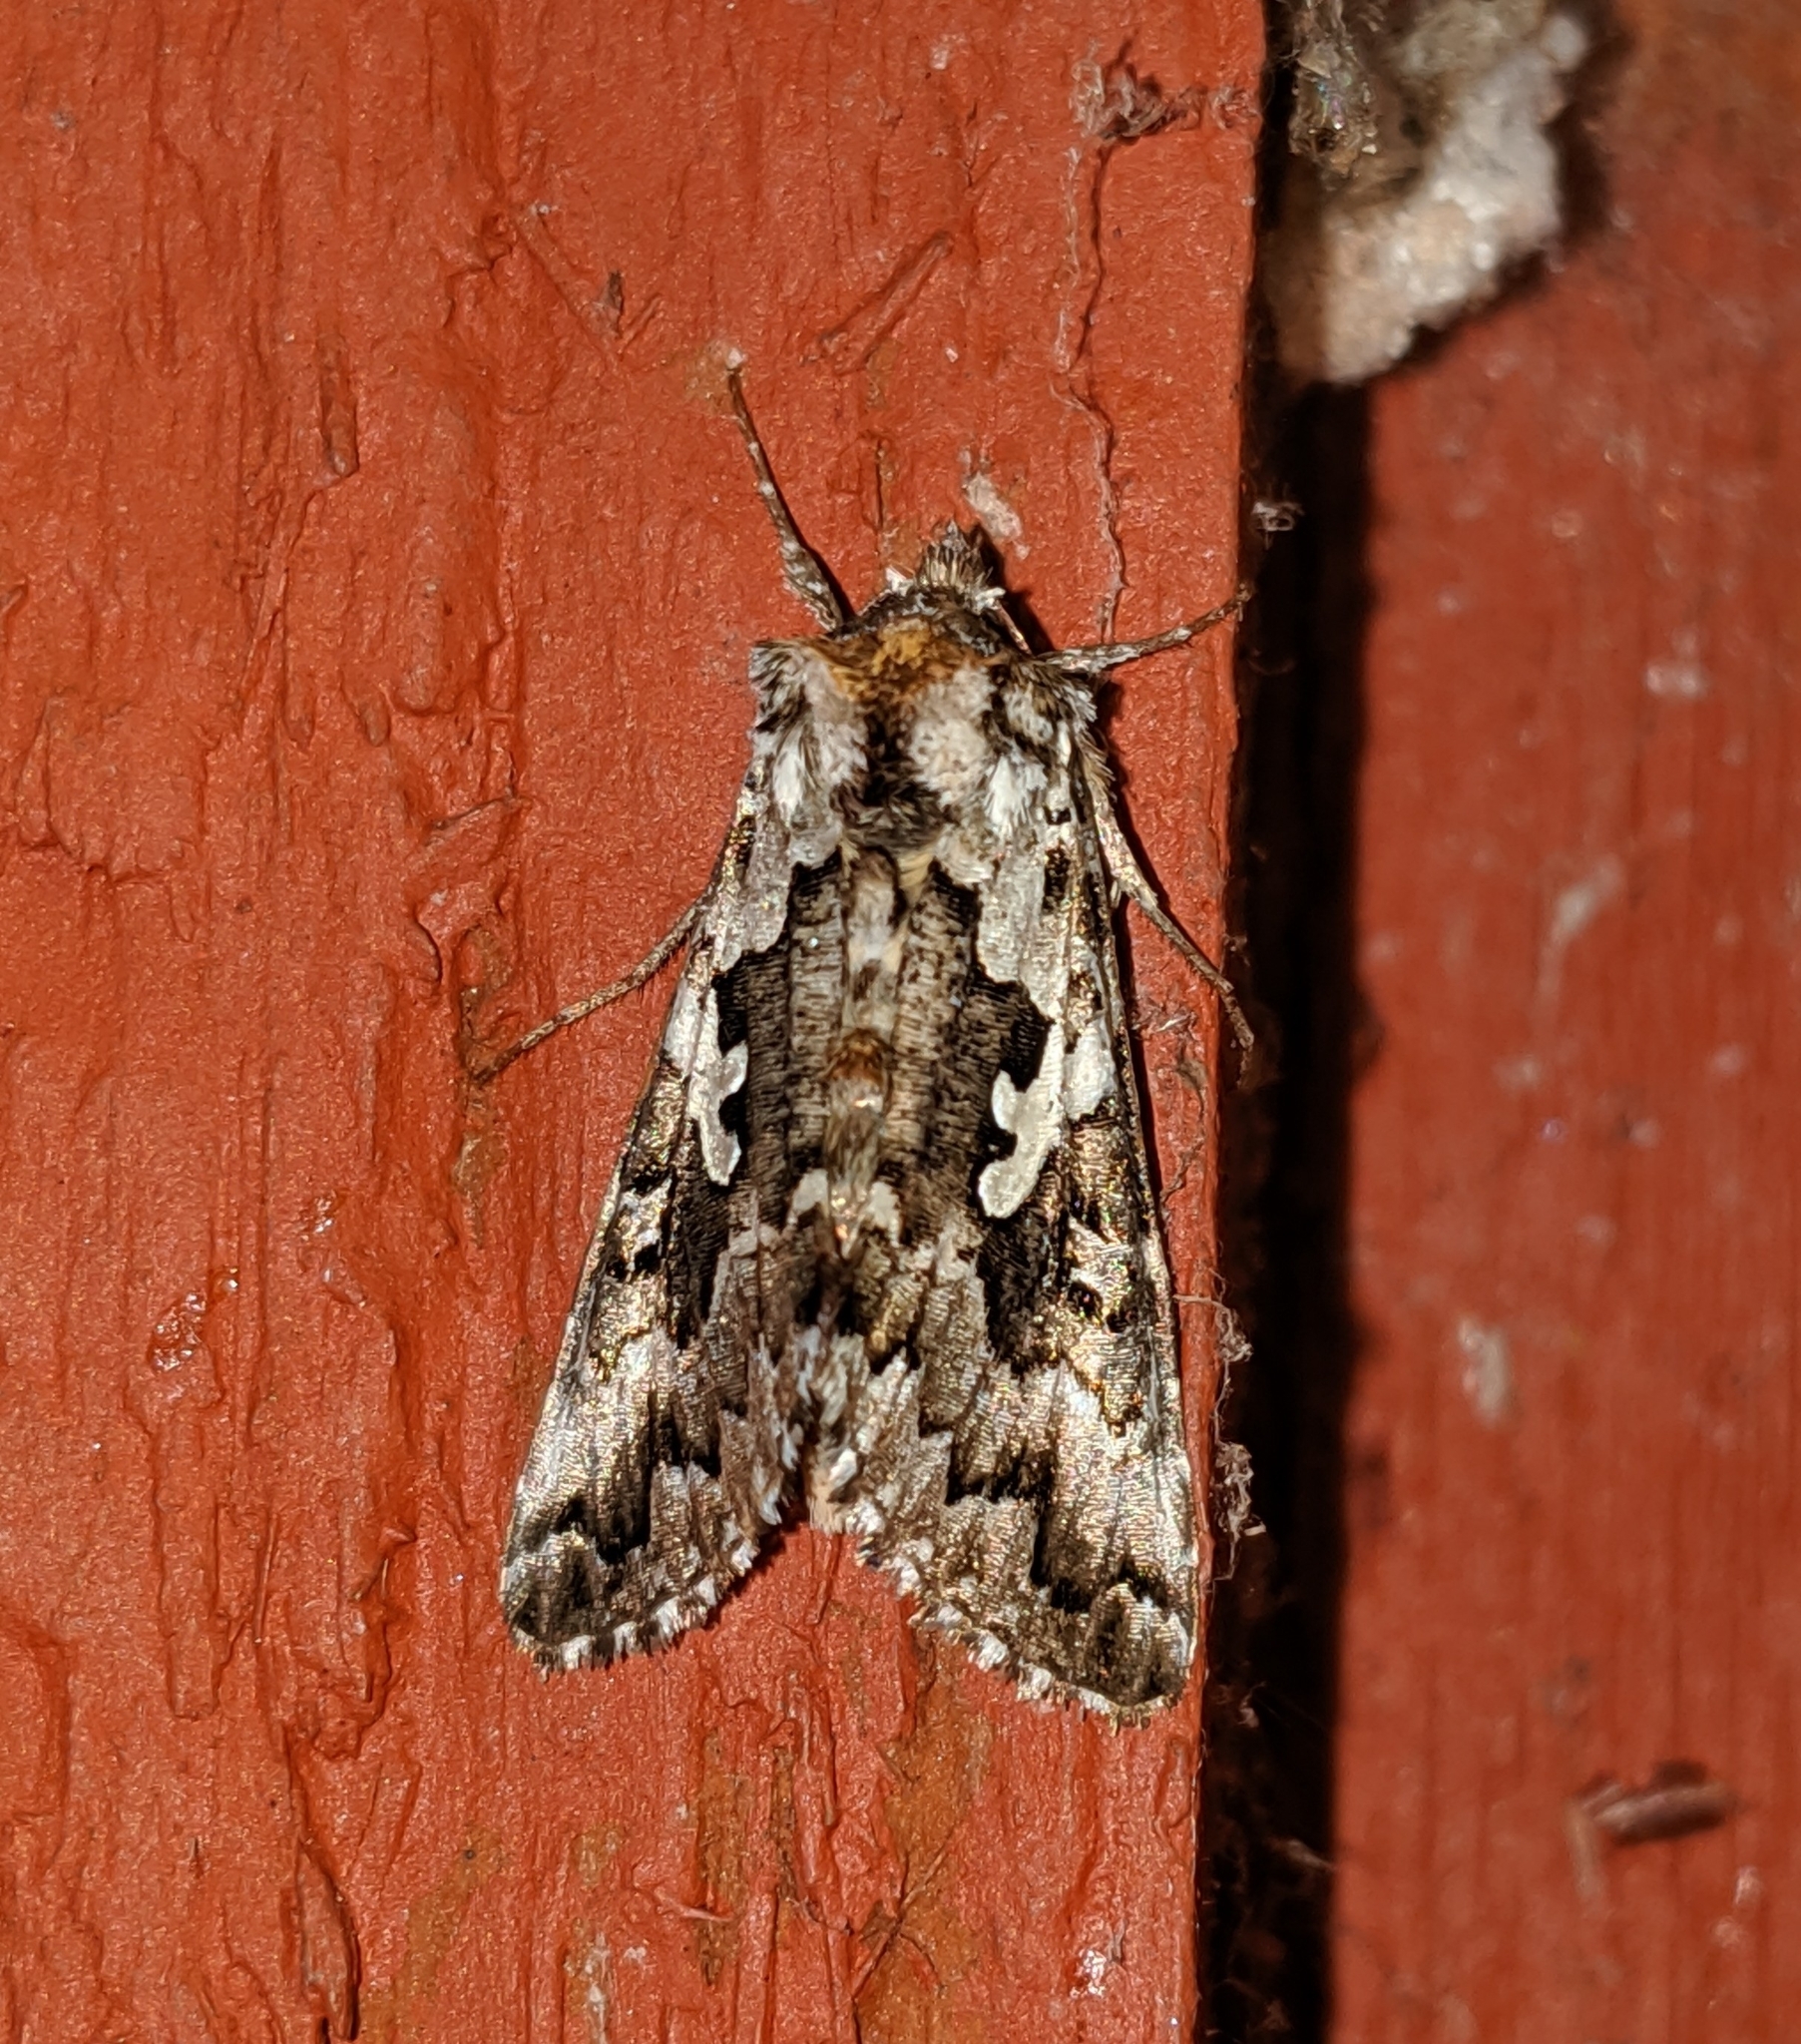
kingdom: Animalia
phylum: Arthropoda
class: Insecta
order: Lepidoptera
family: Noctuidae
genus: Syngrapha
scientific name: Syngrapha rectangula
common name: Angulated cutworm
